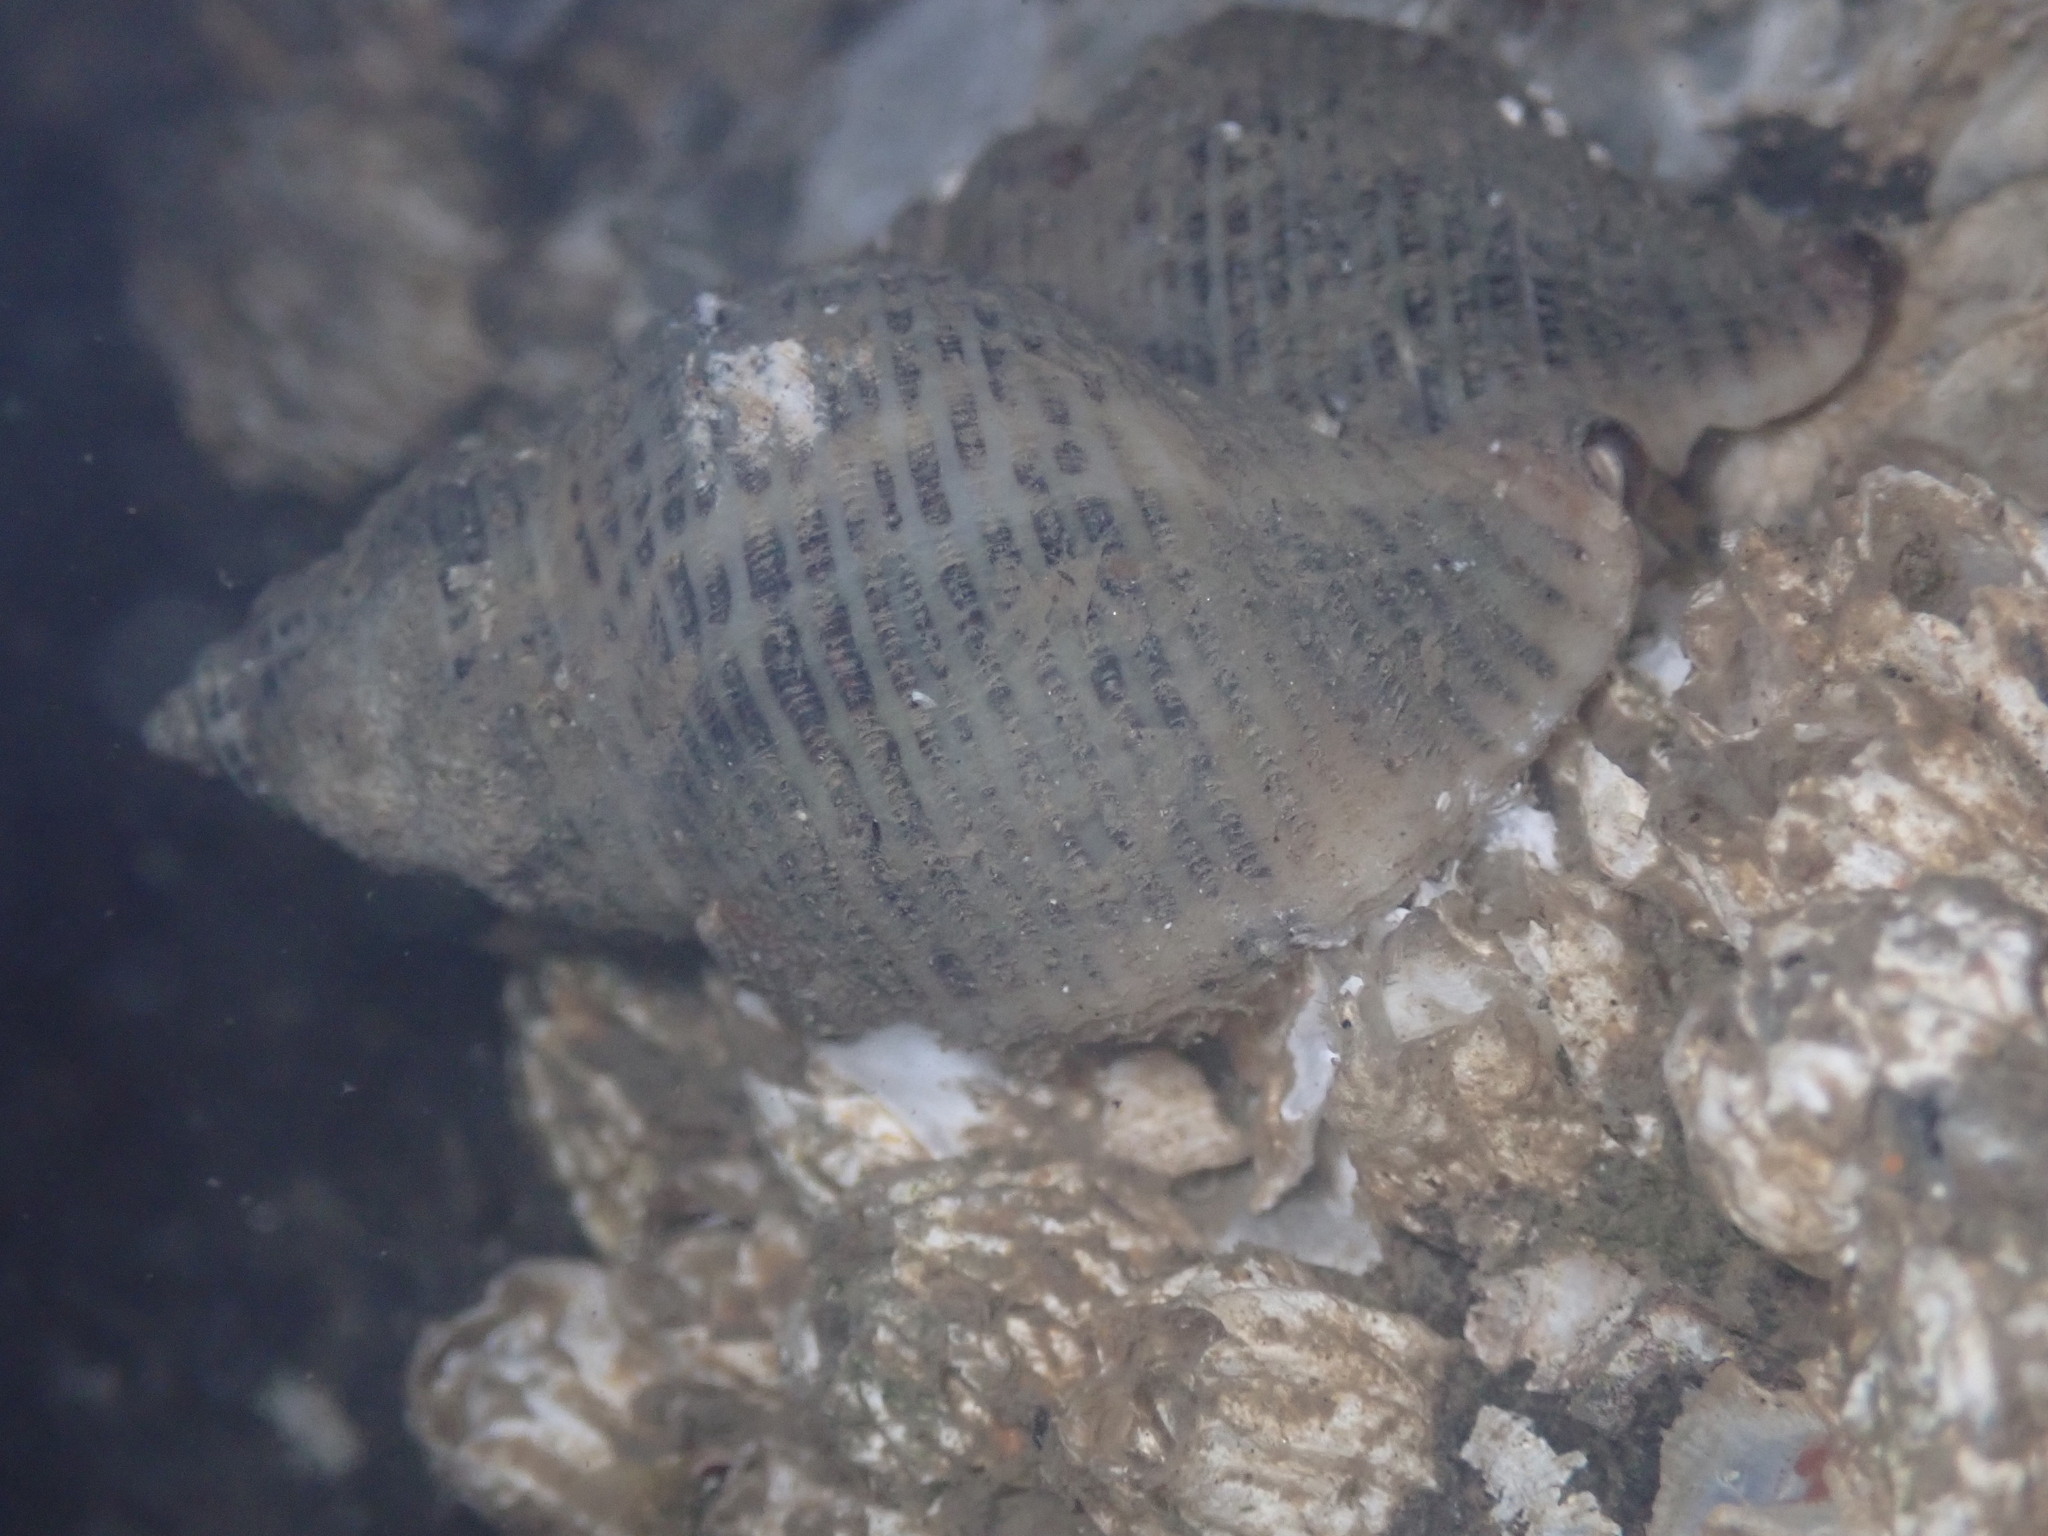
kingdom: Animalia
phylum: Mollusca
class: Gastropoda
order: Neogastropoda
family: Muricidae
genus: Acanthinucella
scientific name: Acanthinucella spirata
